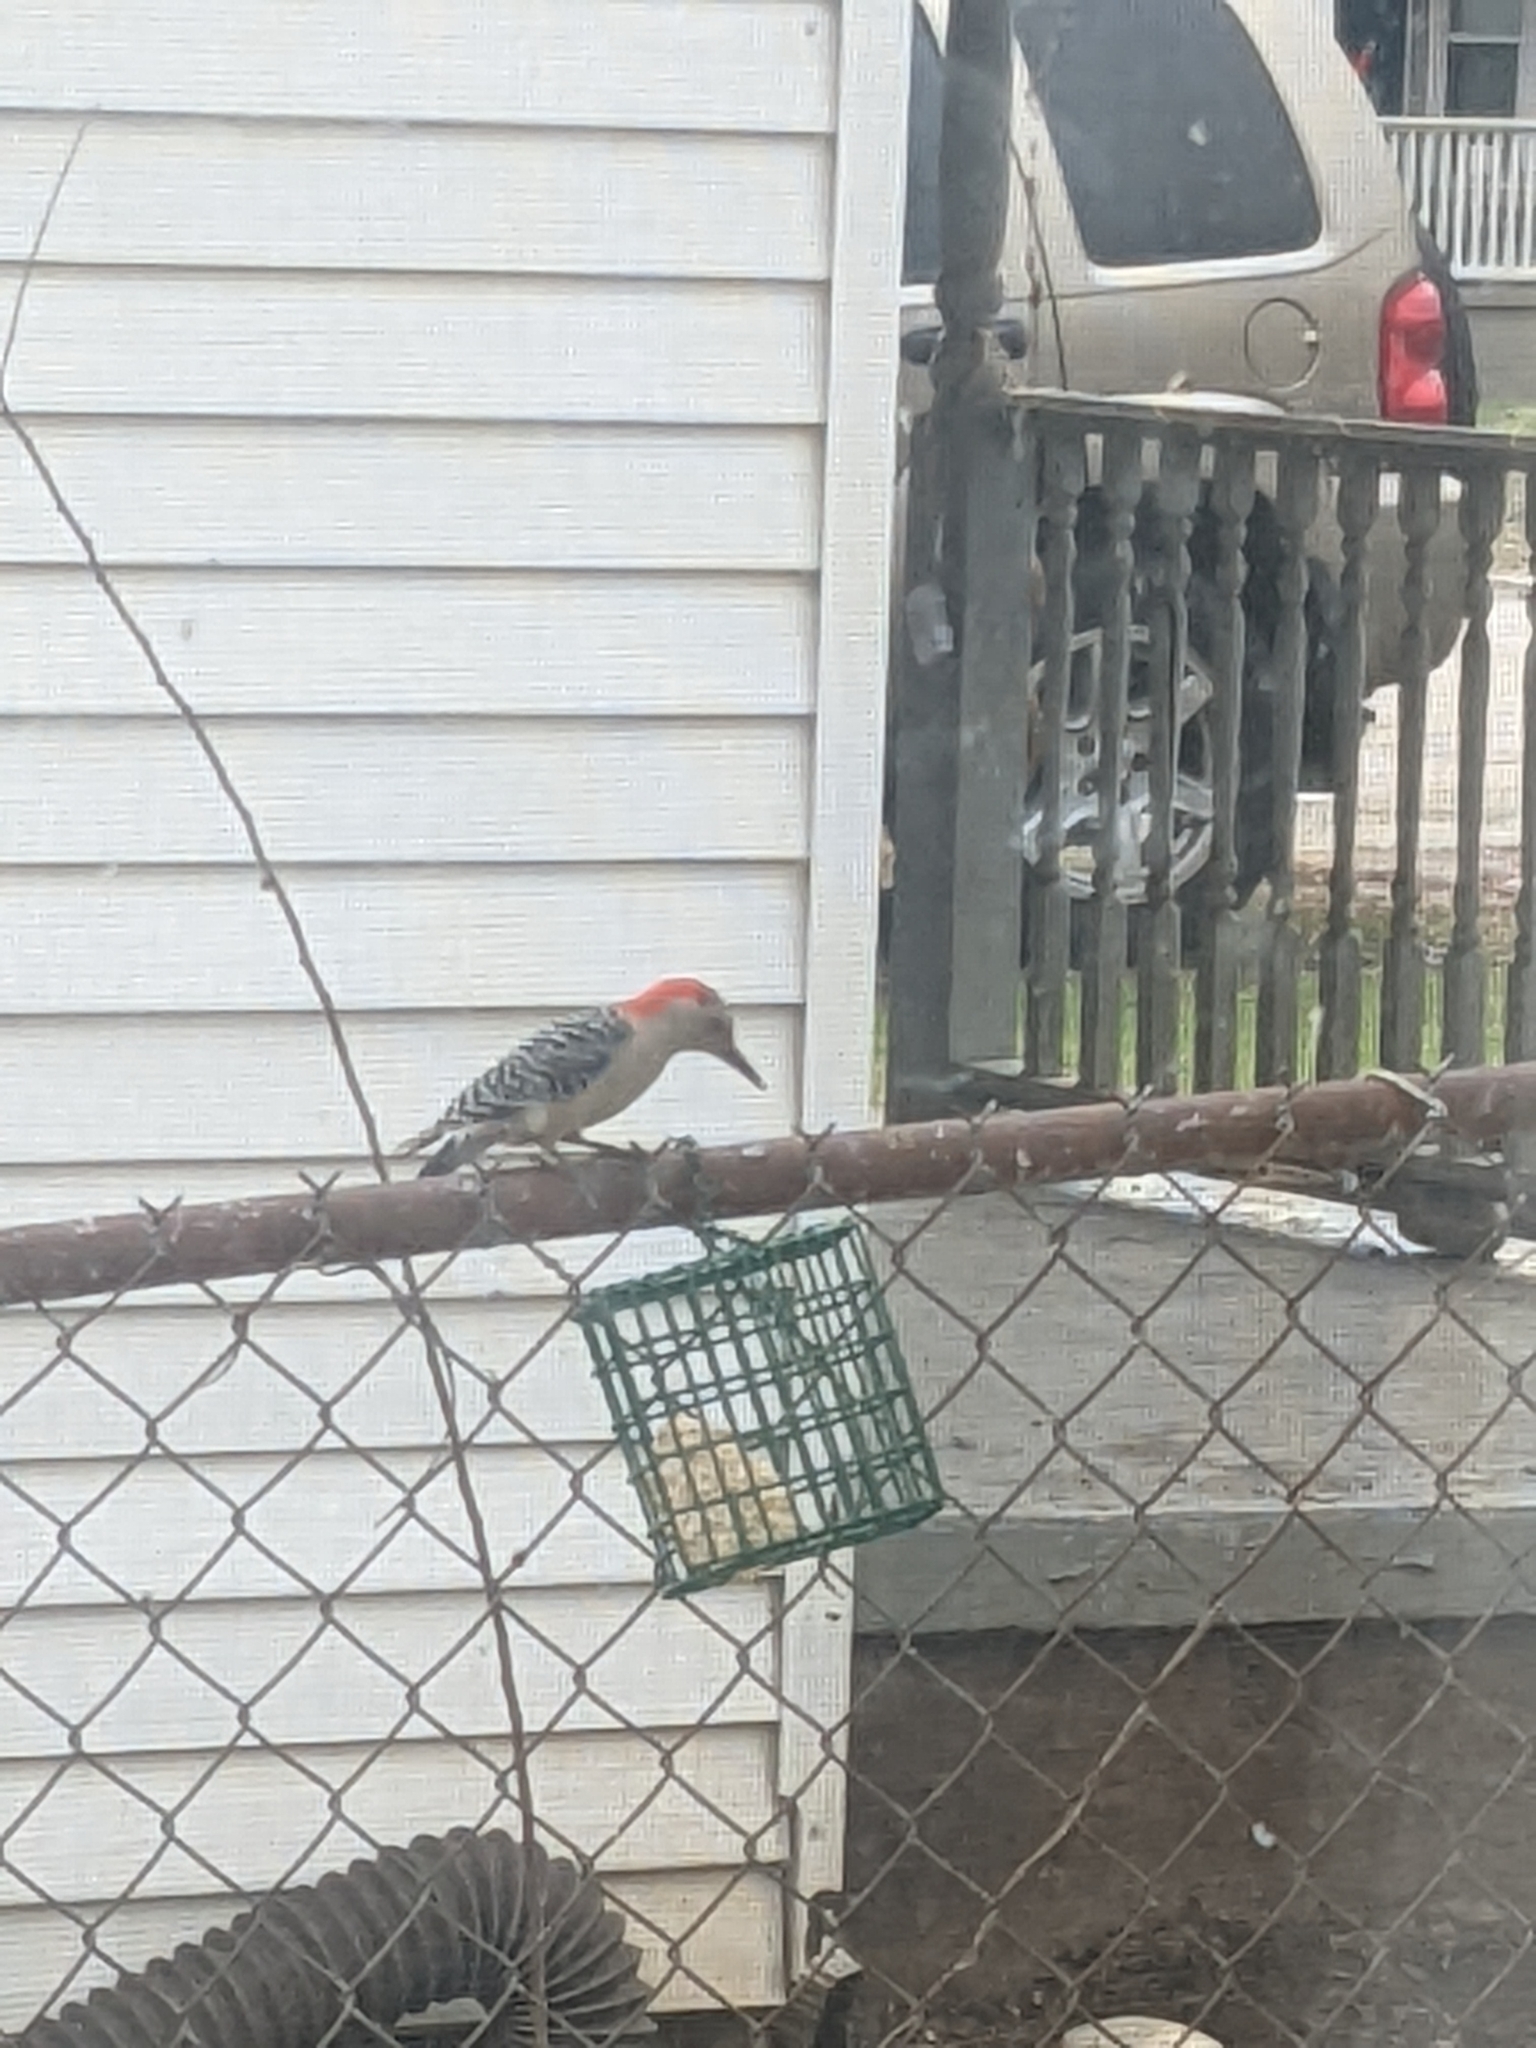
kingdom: Animalia
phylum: Chordata
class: Aves
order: Piciformes
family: Picidae
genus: Melanerpes
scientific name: Melanerpes carolinus
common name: Red-bellied woodpecker
